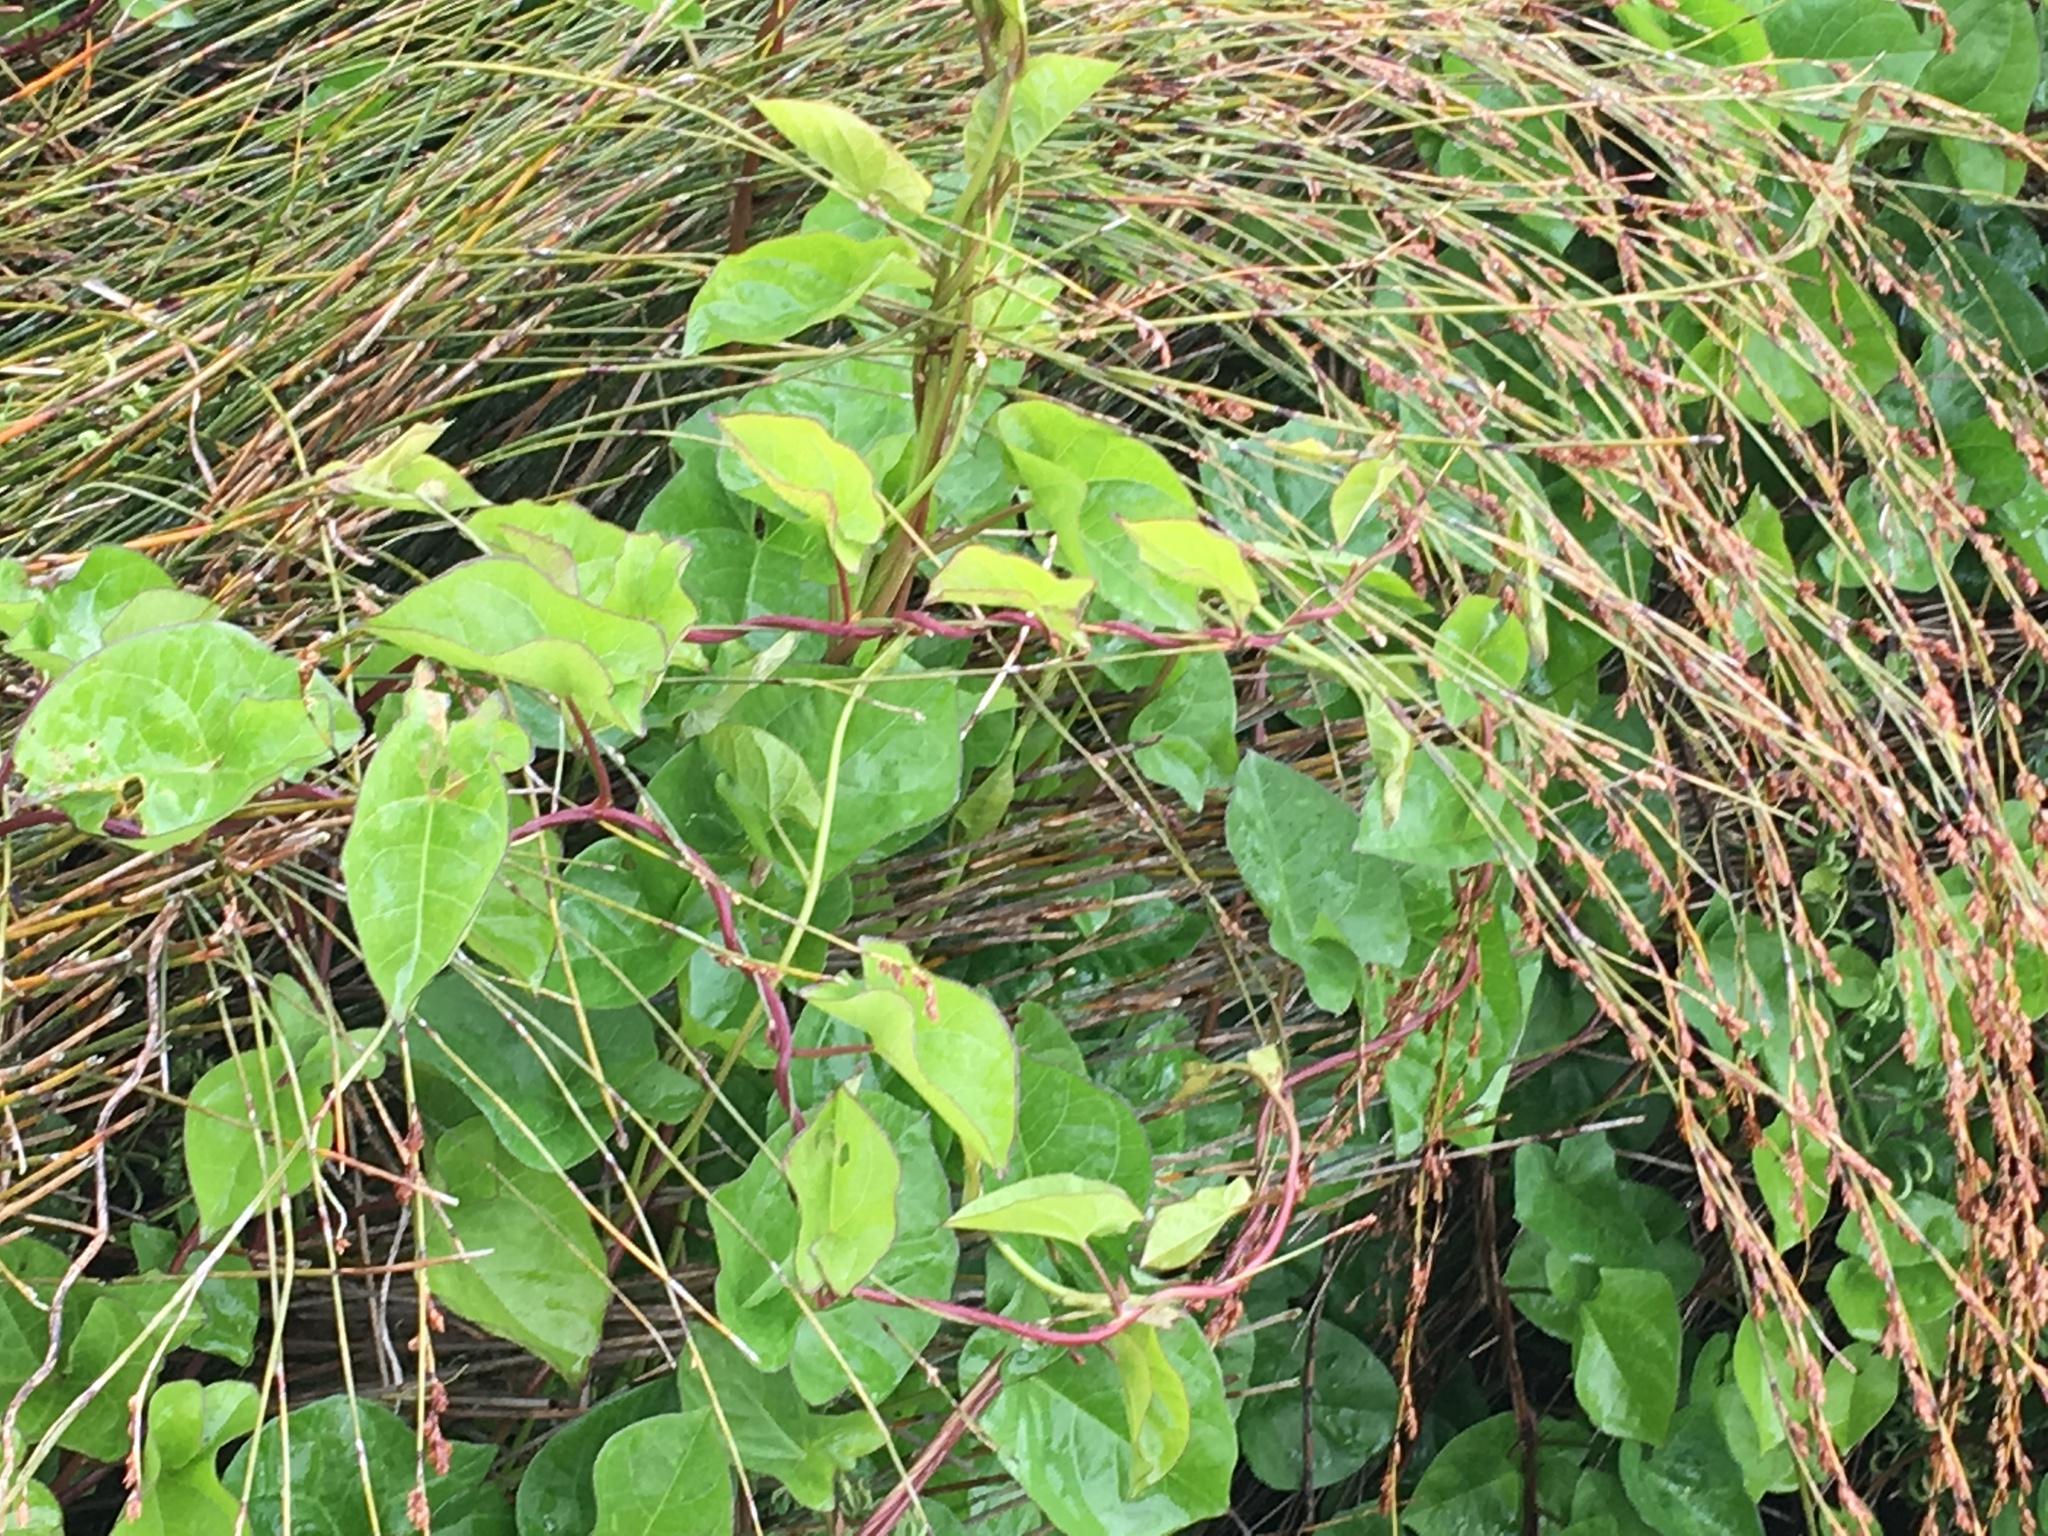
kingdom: Plantae
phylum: Tracheophyta
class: Liliopsida
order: Poales
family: Restionaceae
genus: Apodasmia
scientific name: Apodasmia similis
